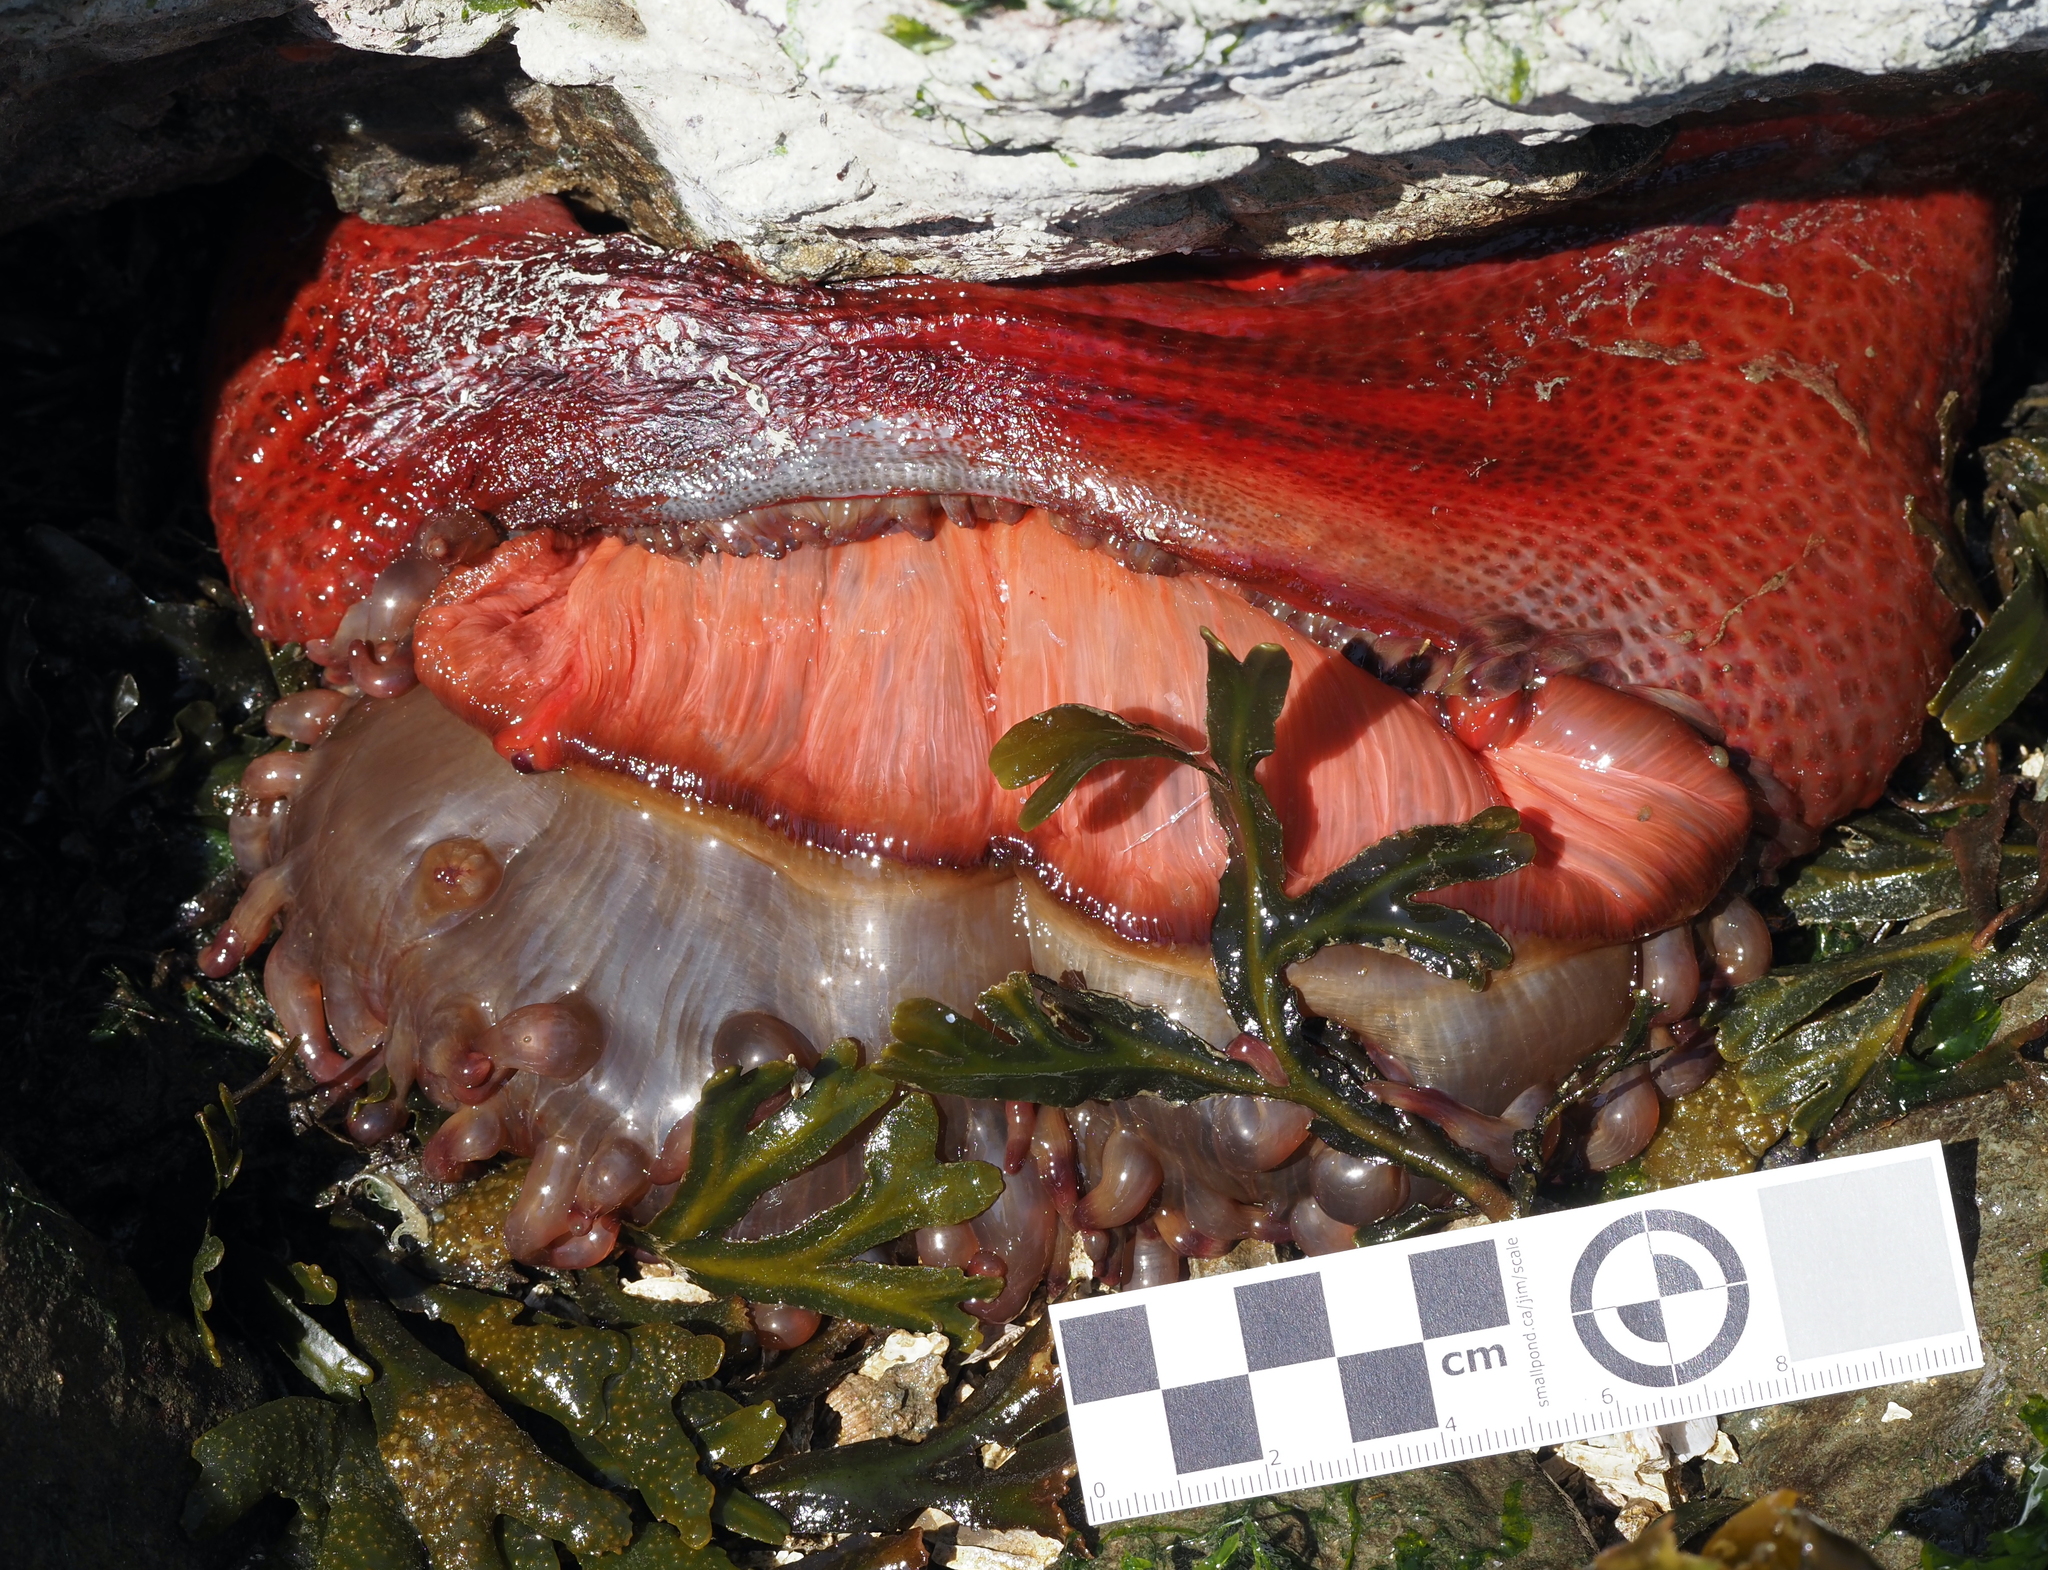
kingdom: Animalia
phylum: Cnidaria
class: Anthozoa
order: Actiniaria
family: Actiniidae
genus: Urticina
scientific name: Urticina grebelnyi
